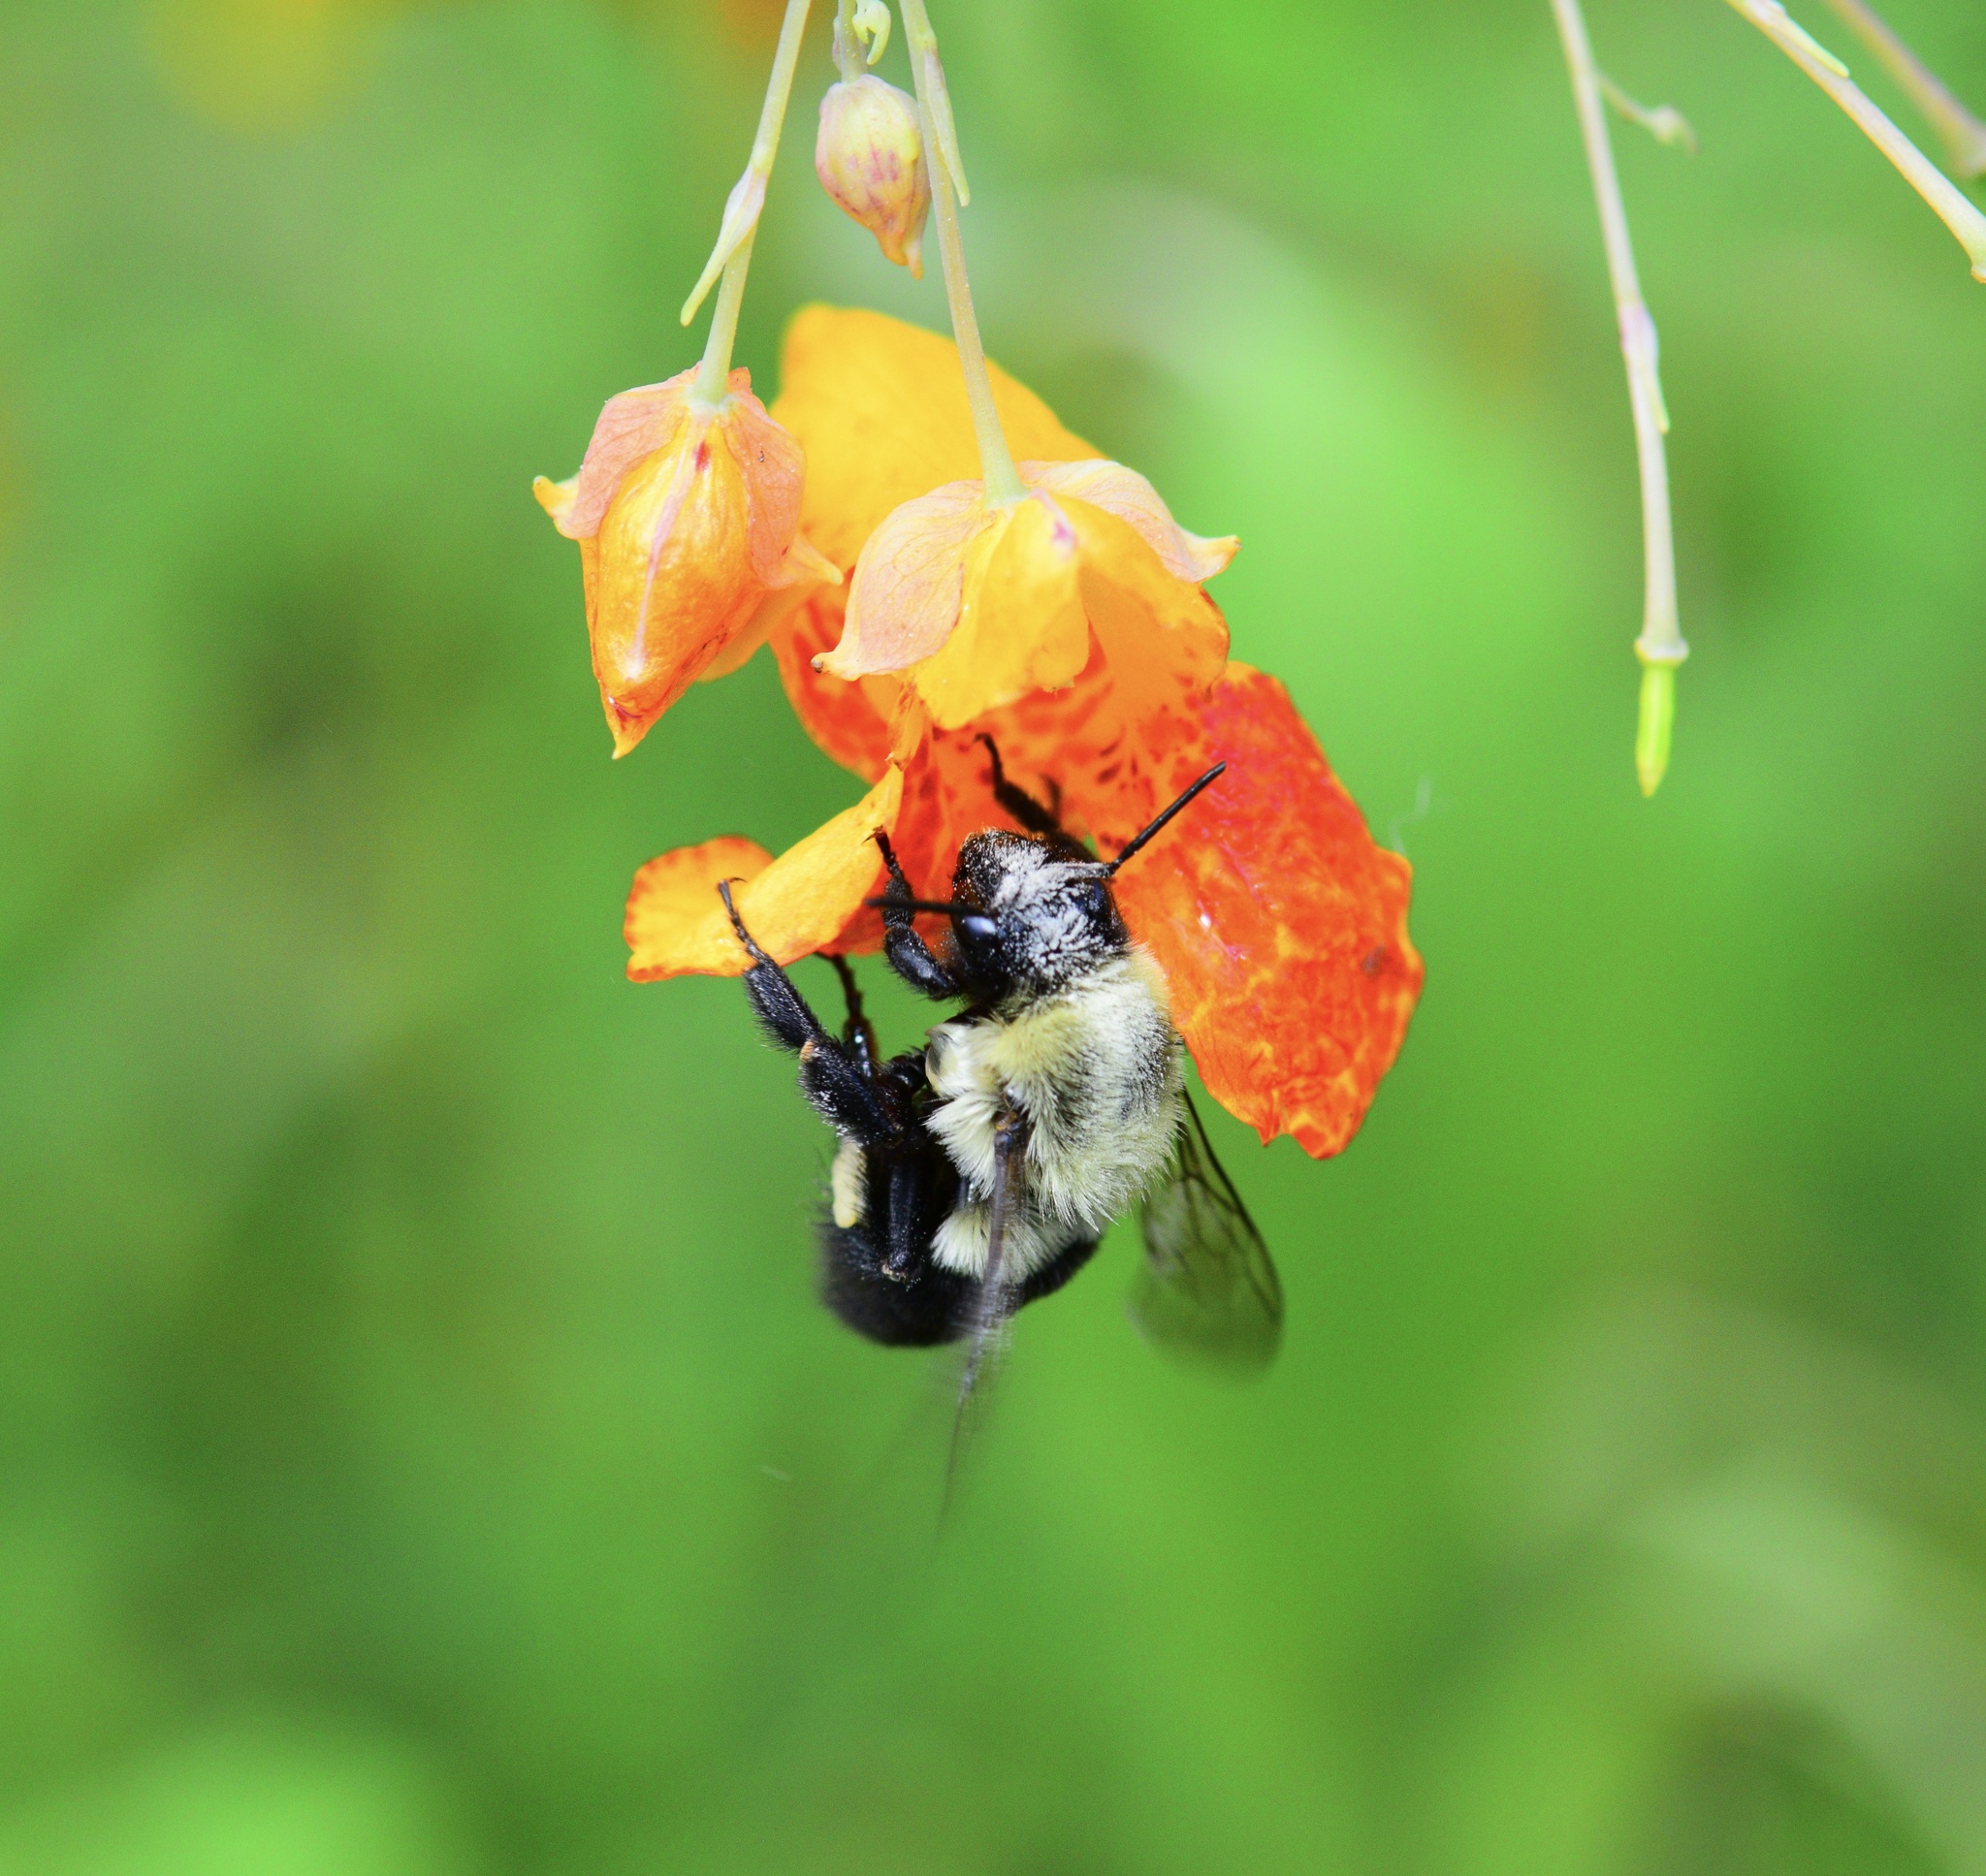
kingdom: Animalia
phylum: Arthropoda
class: Insecta
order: Hymenoptera
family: Apidae
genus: Bombus
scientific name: Bombus impatiens
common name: Common eastern bumble bee
